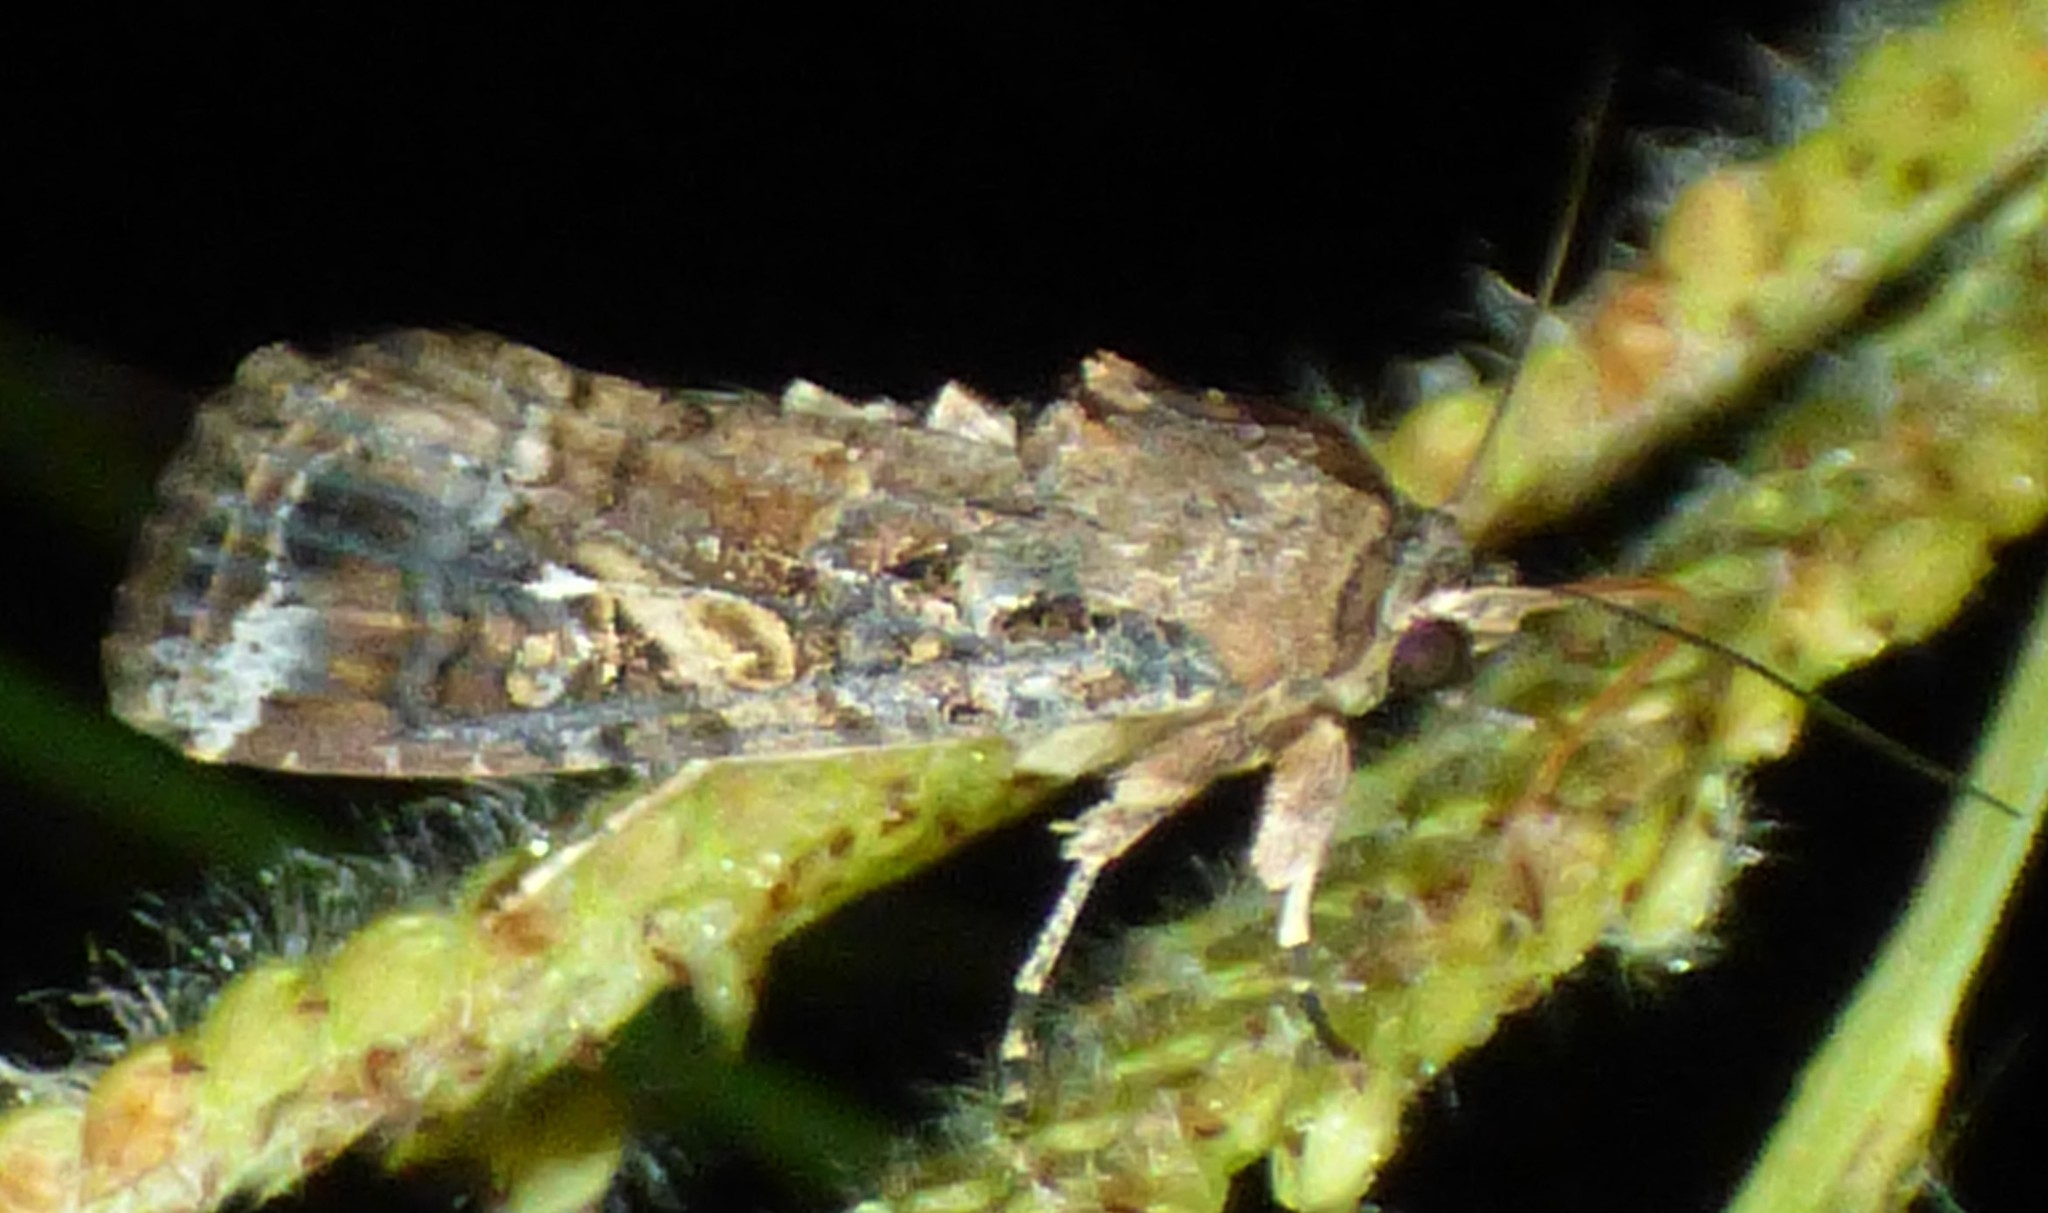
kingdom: Animalia
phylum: Arthropoda
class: Insecta
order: Lepidoptera
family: Noctuidae
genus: Spodoptera
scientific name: Spodoptera frugiperda
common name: Fall armyworm
